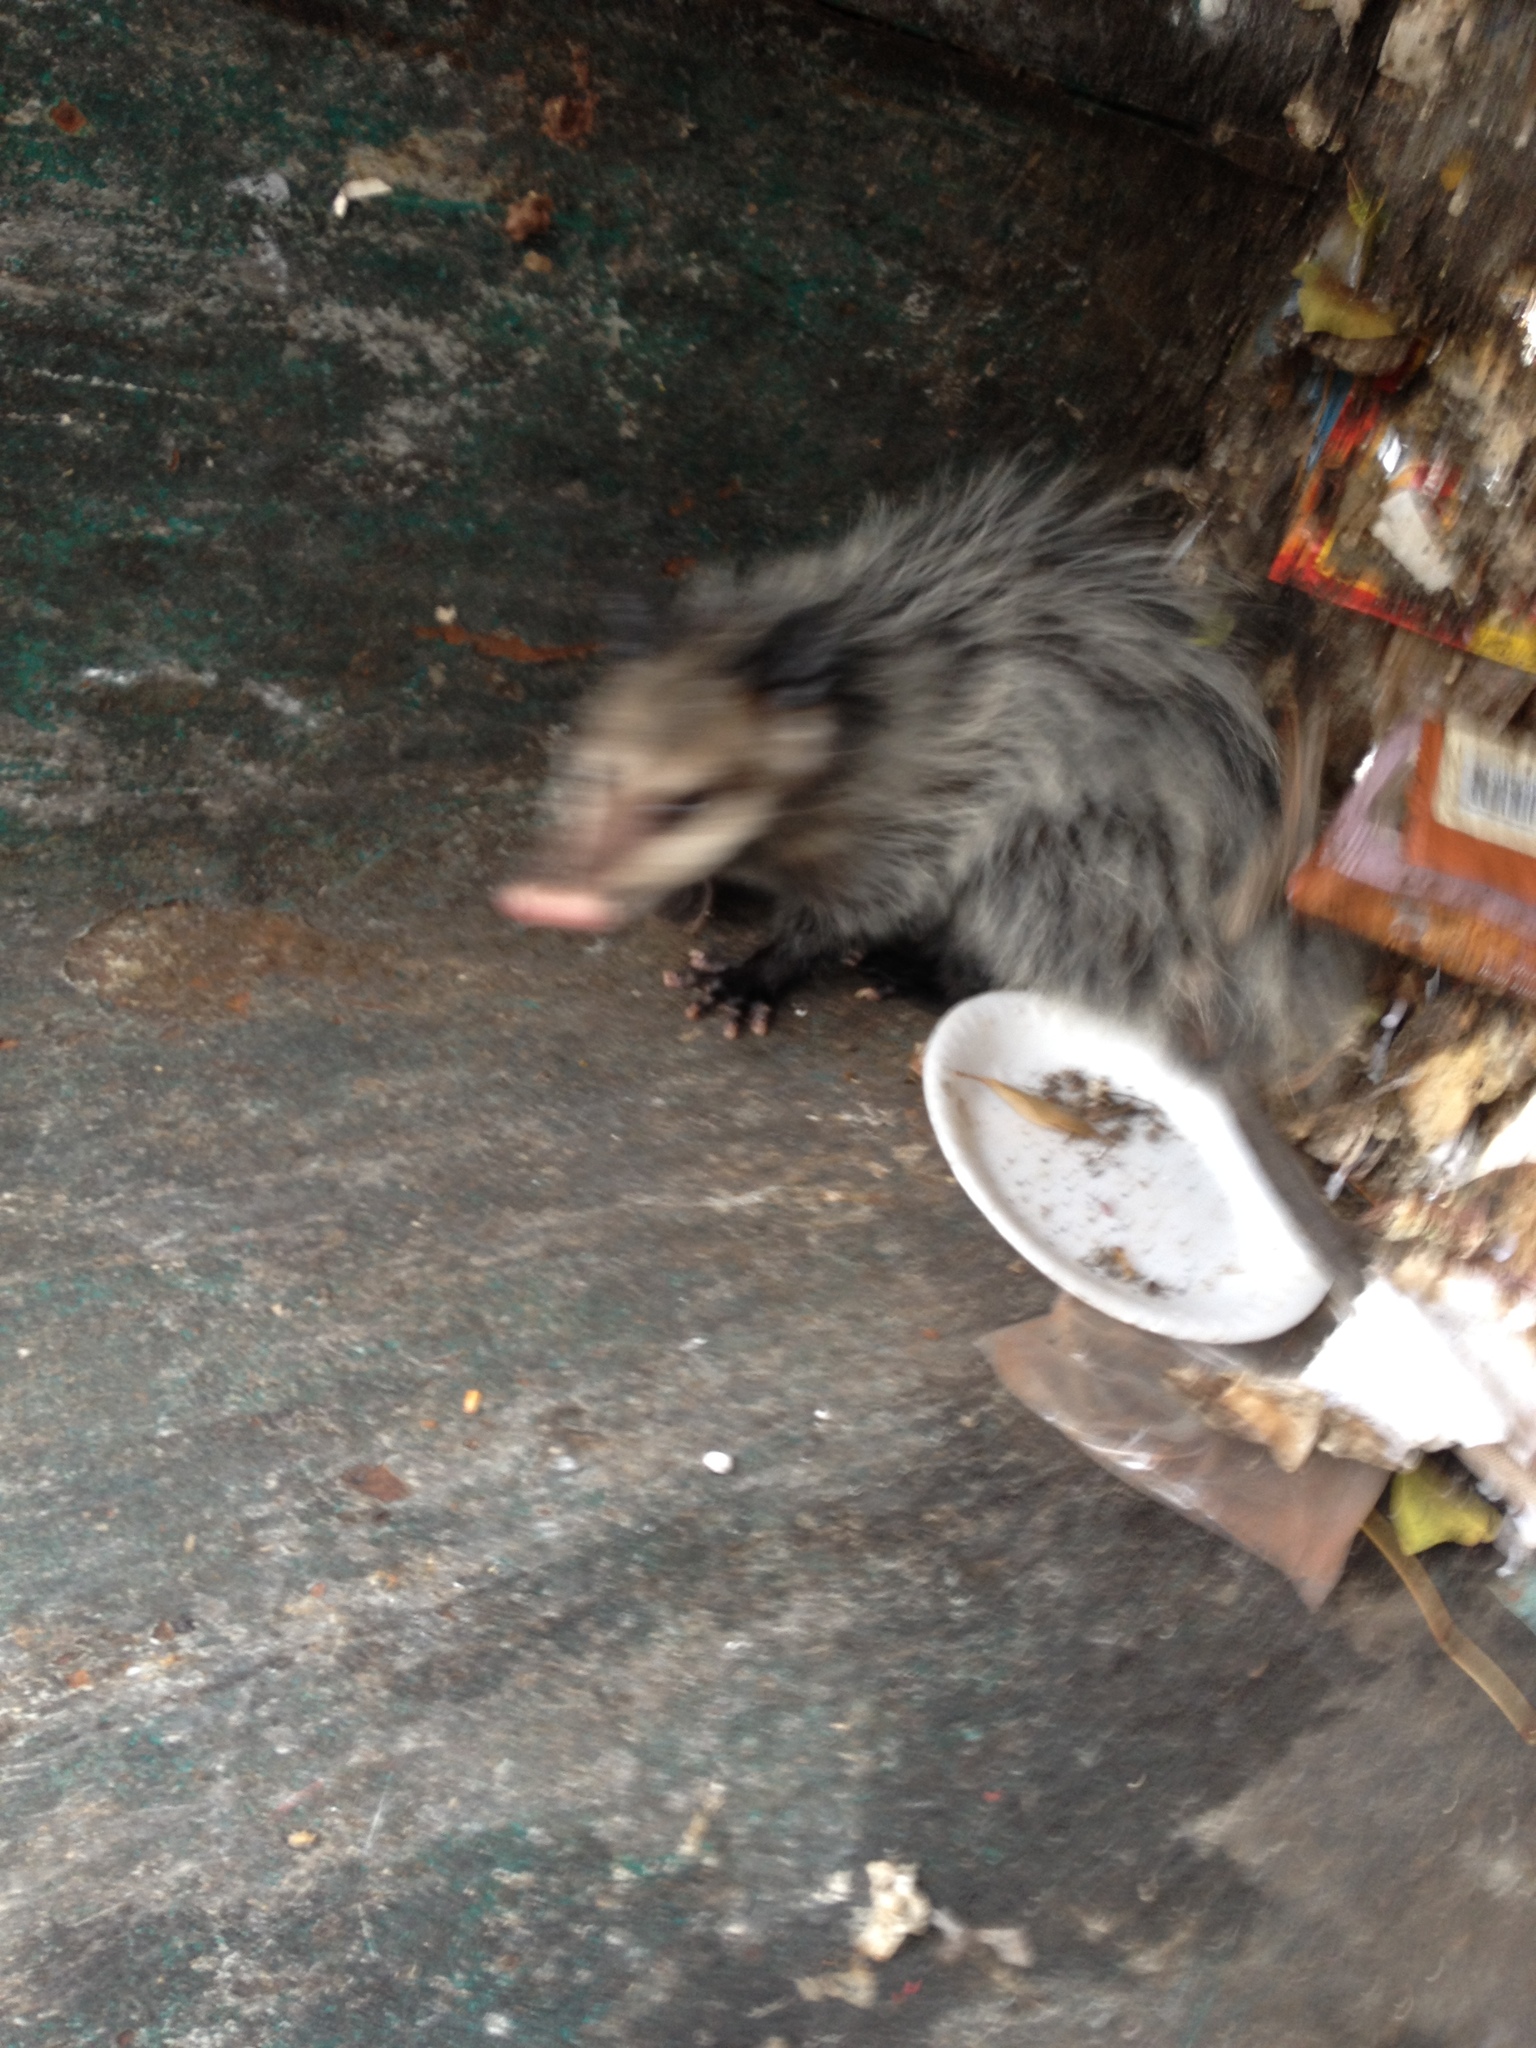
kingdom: Animalia
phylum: Chordata
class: Mammalia
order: Didelphimorphia
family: Didelphidae
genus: Didelphis
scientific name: Didelphis virginiana
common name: Virginia opossum
